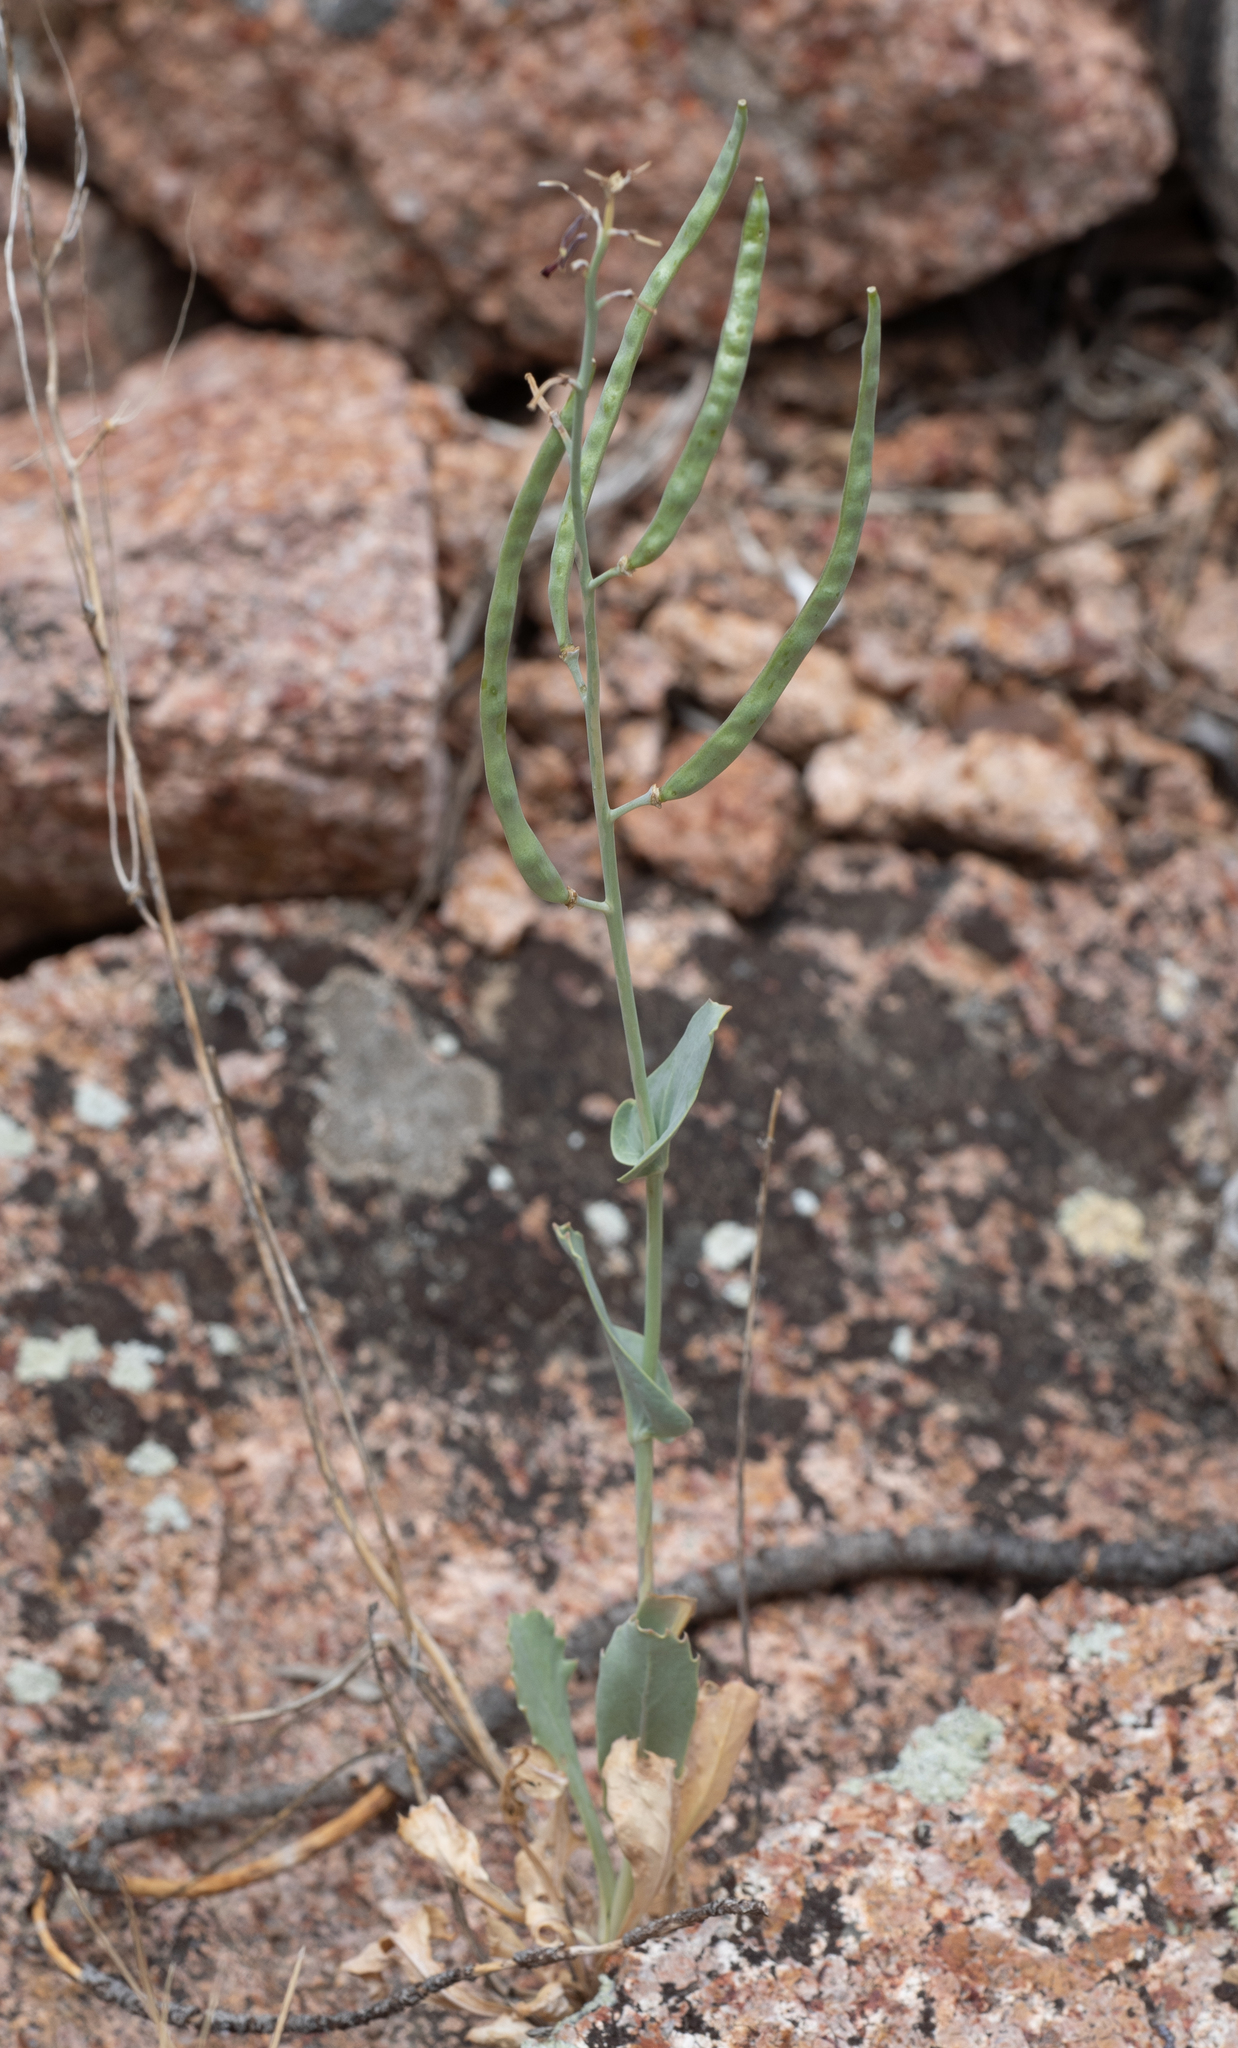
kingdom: Plantae
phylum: Tracheophyta
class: Magnoliopsida
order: Brassicales
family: Brassicaceae
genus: Streptanthus
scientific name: Streptanthus cordatus
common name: Heart-leaf jewel-flower
